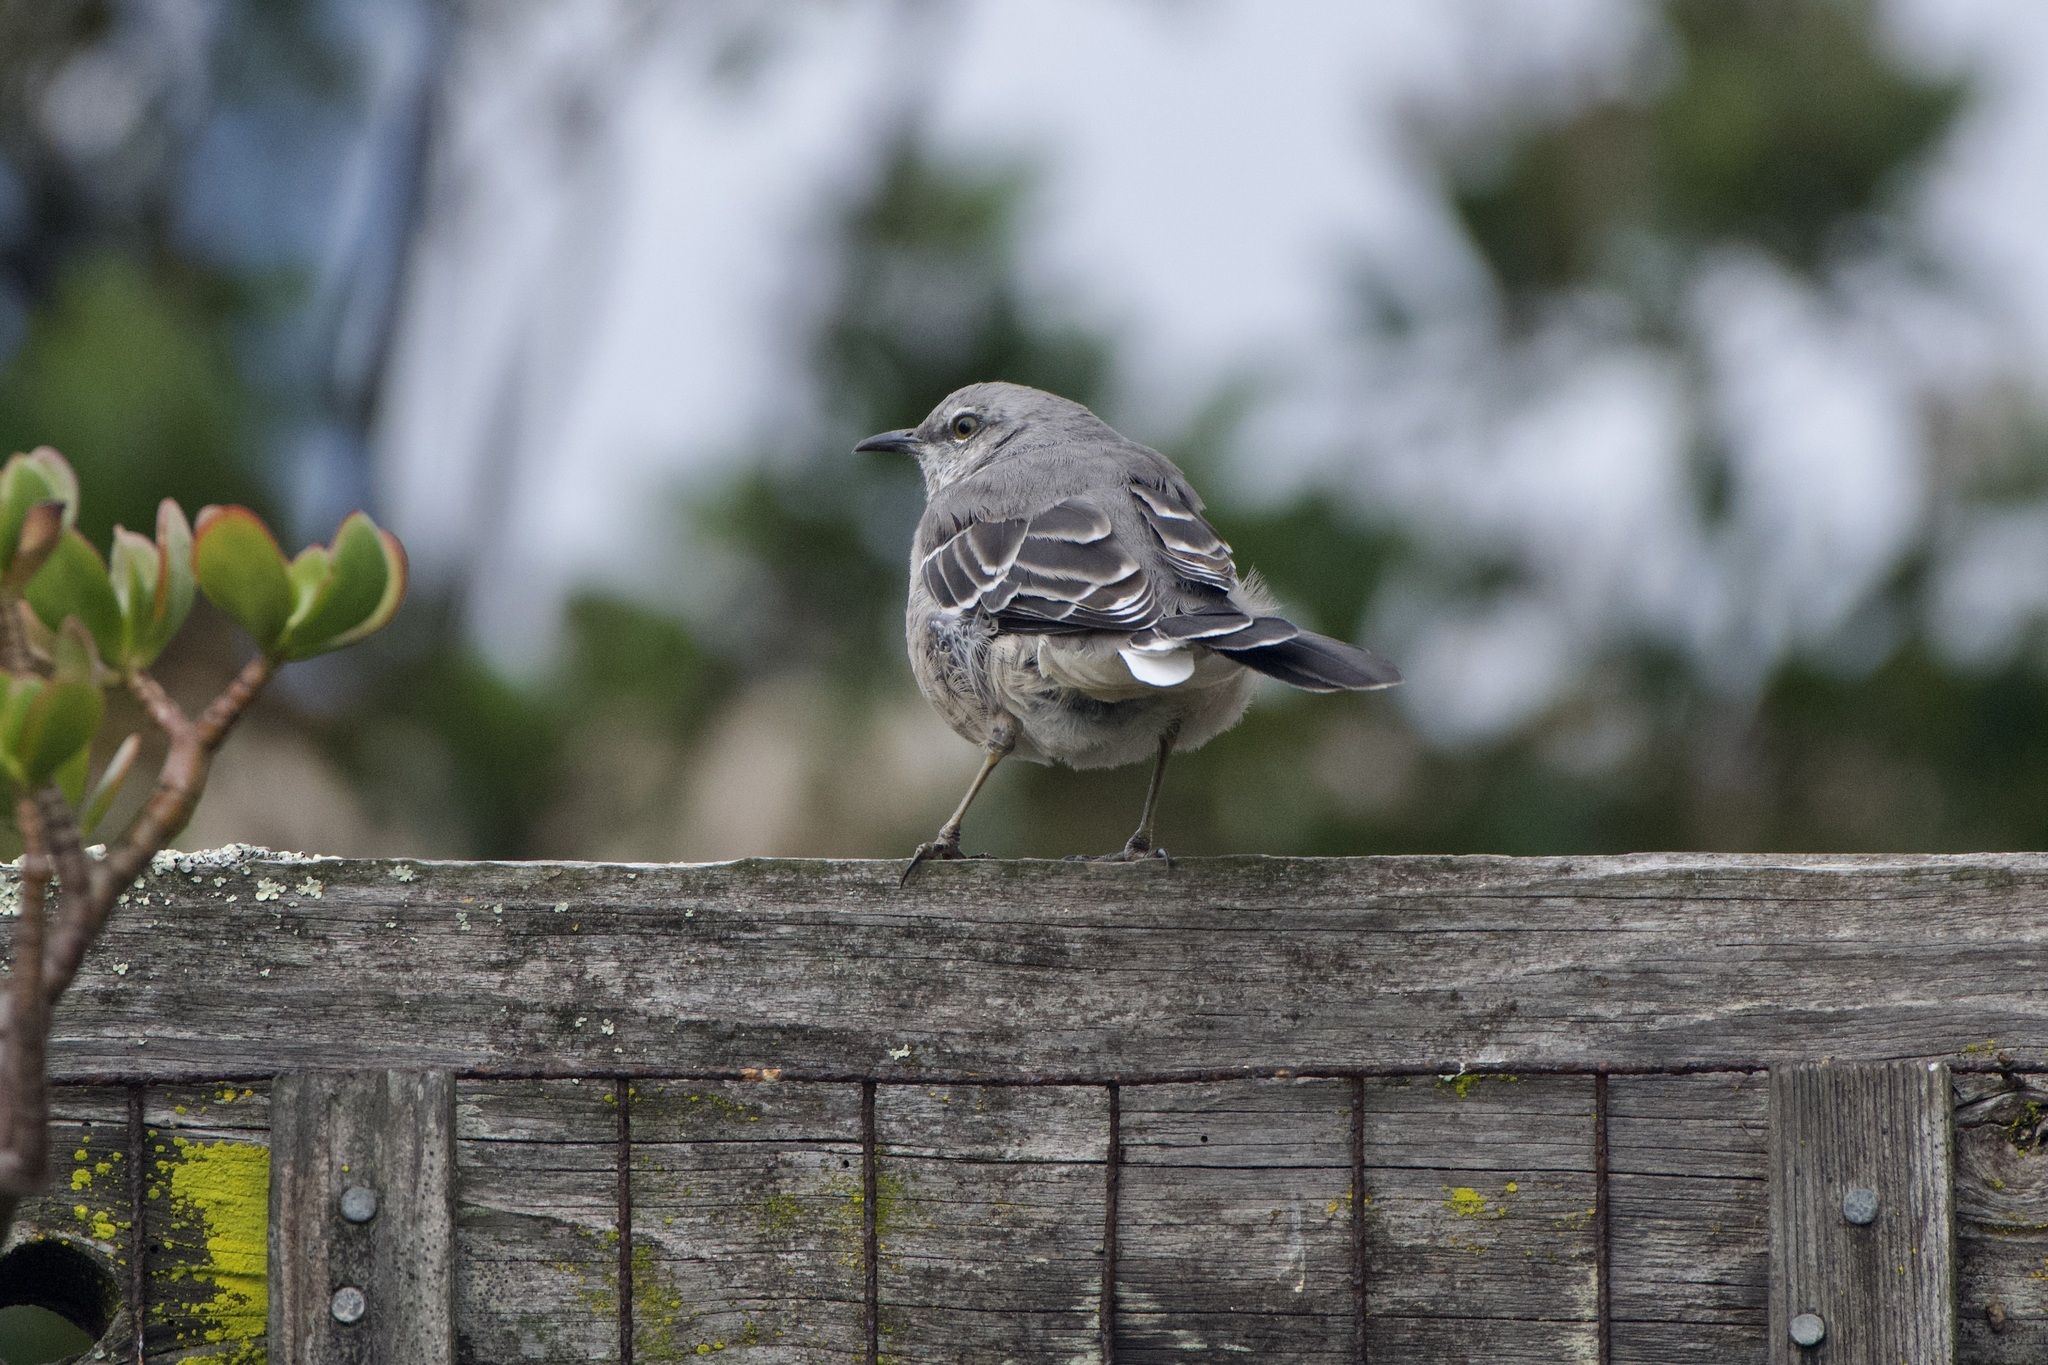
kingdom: Animalia
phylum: Chordata
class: Aves
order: Passeriformes
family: Mimidae
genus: Mimus
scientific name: Mimus polyglottos
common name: Northern mockingbird
